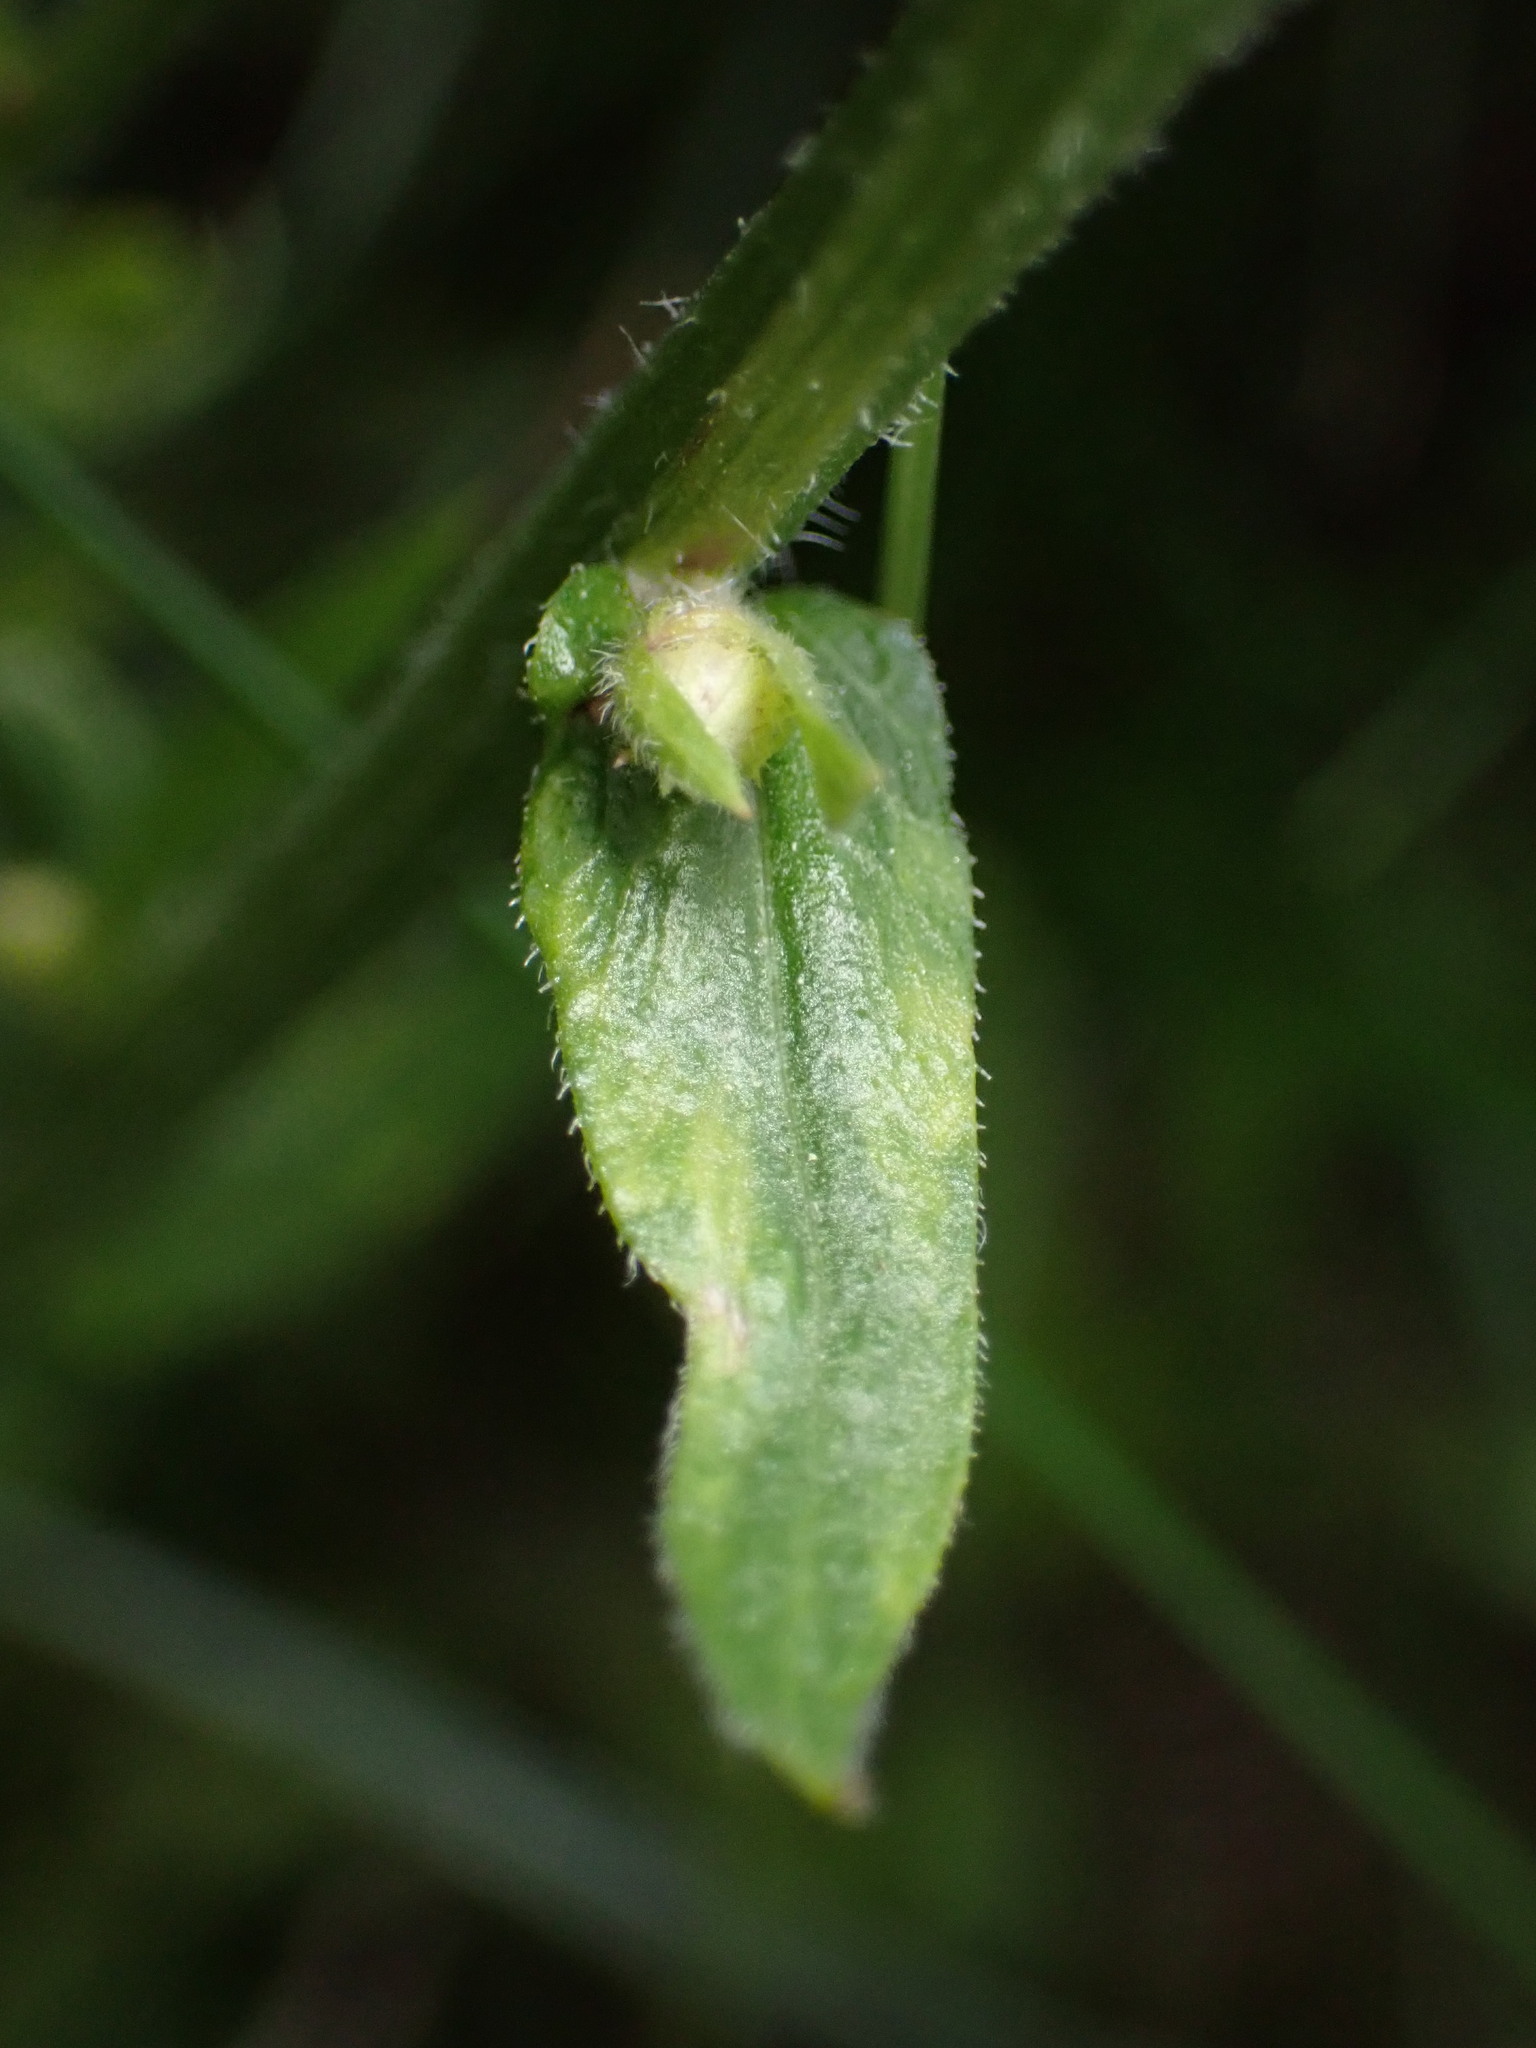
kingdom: Plantae
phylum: Tracheophyta
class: Magnoliopsida
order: Asterales
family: Asteraceae
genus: Erigeron
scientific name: Erigeron philadelphicus
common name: Robin's-plantain
